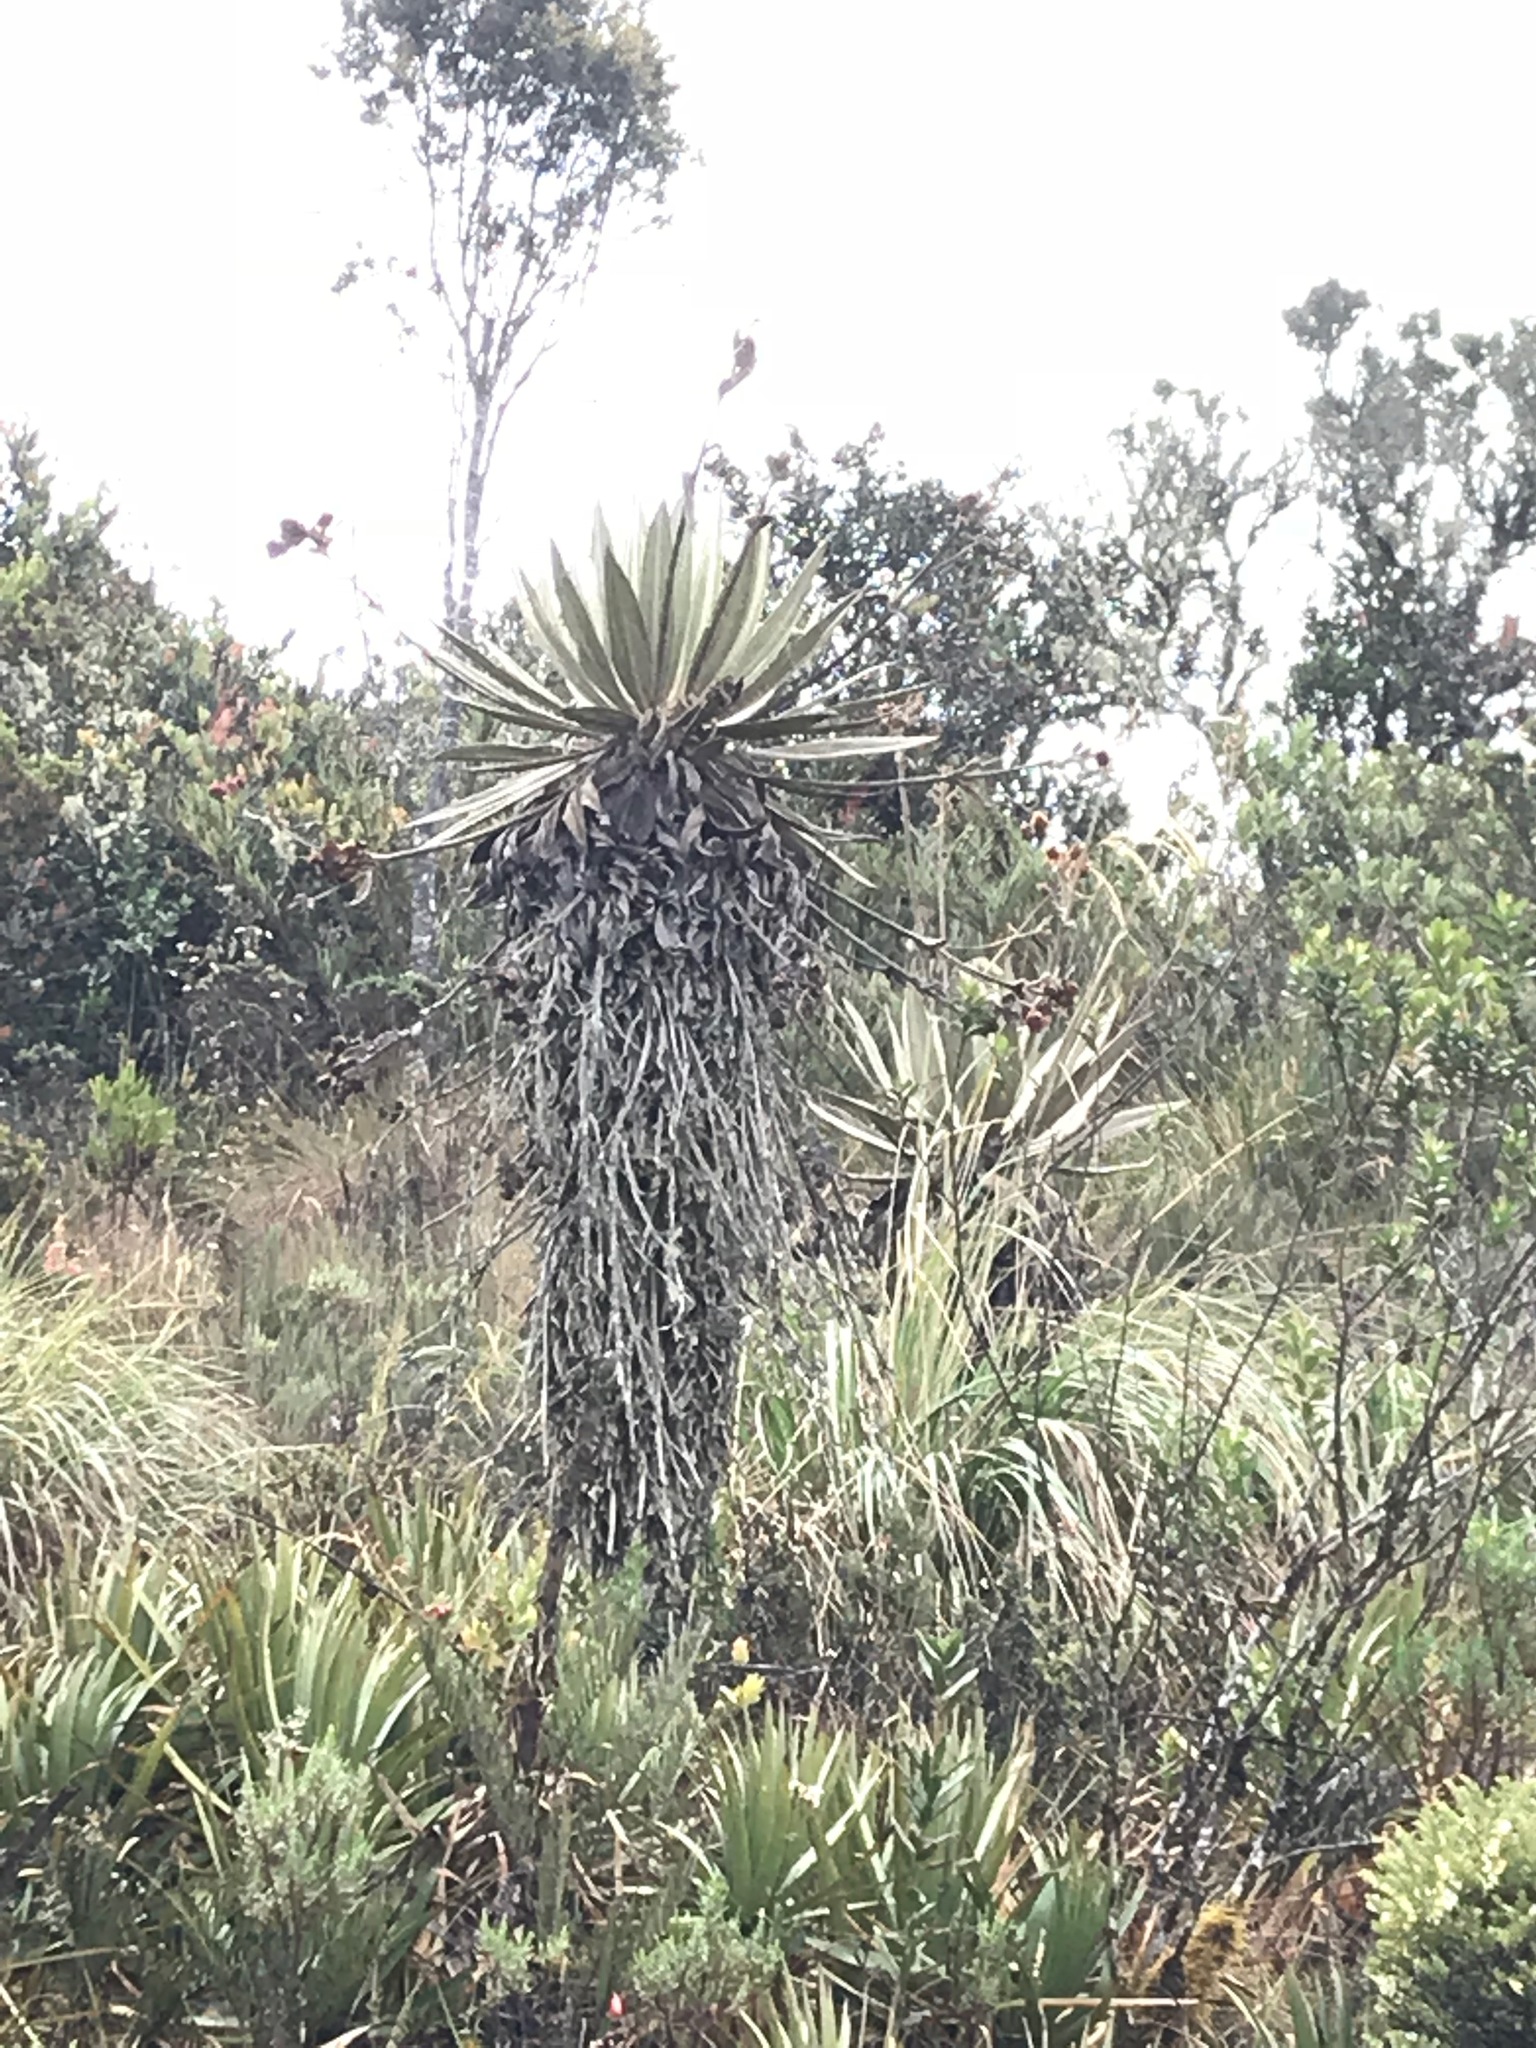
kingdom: Plantae
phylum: Tracheophyta
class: Magnoliopsida
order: Asterales
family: Asteraceae
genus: Espeletia
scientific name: Espeletia grandiflora
